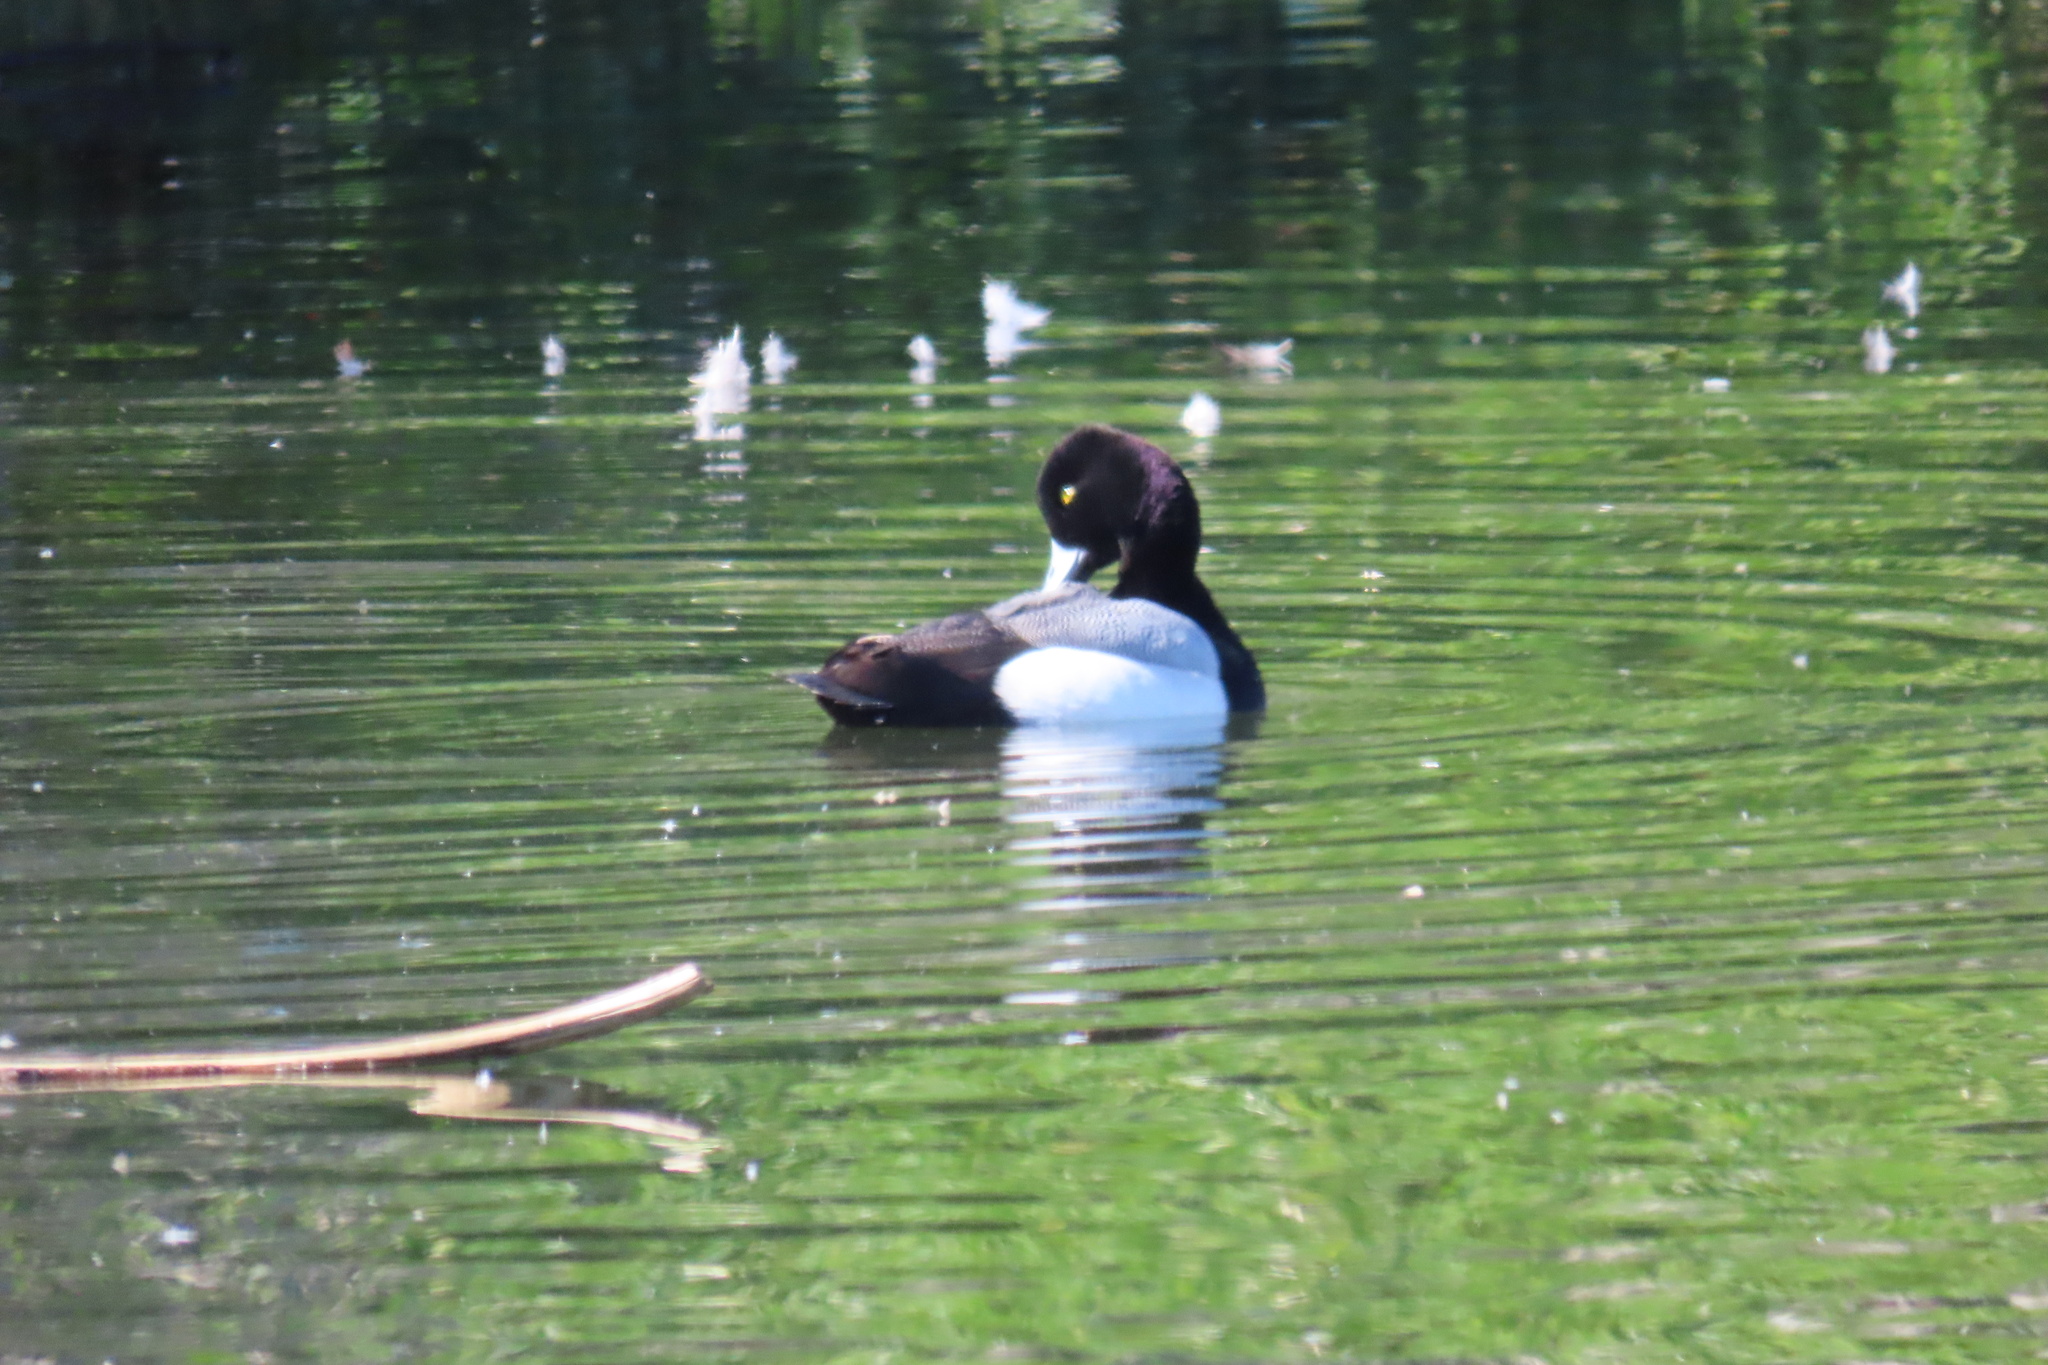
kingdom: Animalia
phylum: Chordata
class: Aves
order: Anseriformes
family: Anatidae
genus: Aythya
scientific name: Aythya affinis
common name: Lesser scaup
